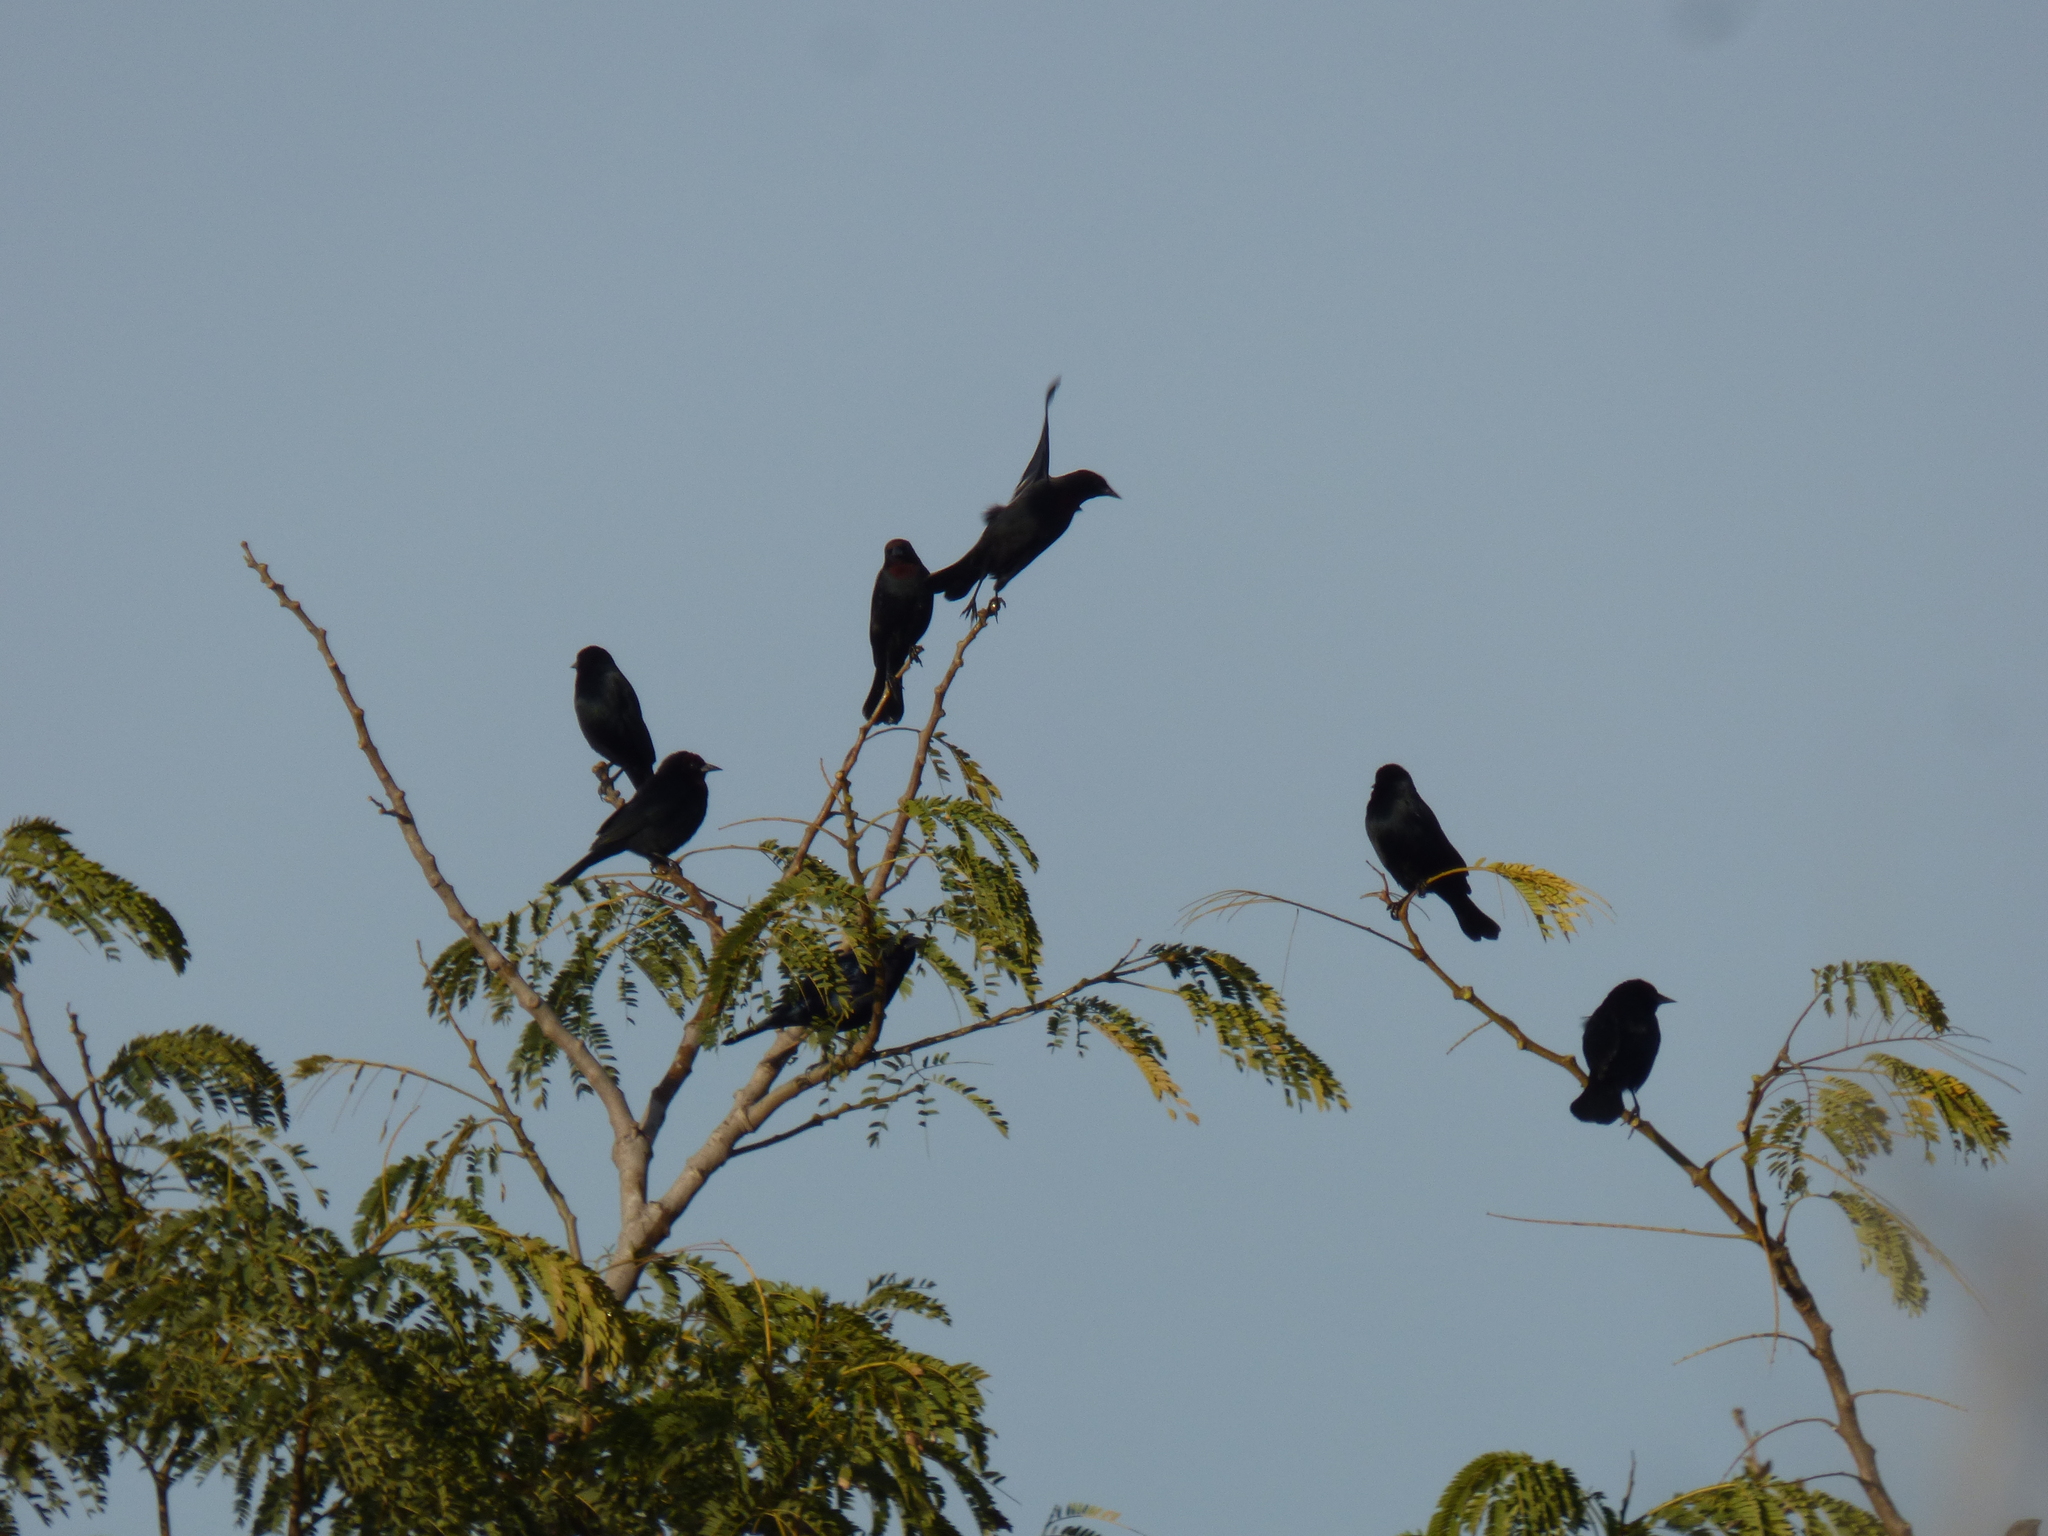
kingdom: Animalia
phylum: Chordata
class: Aves
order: Passeriformes
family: Icteridae
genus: Chrysomus
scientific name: Chrysomus ruficapillus
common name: Chestnut-capped blackbird
